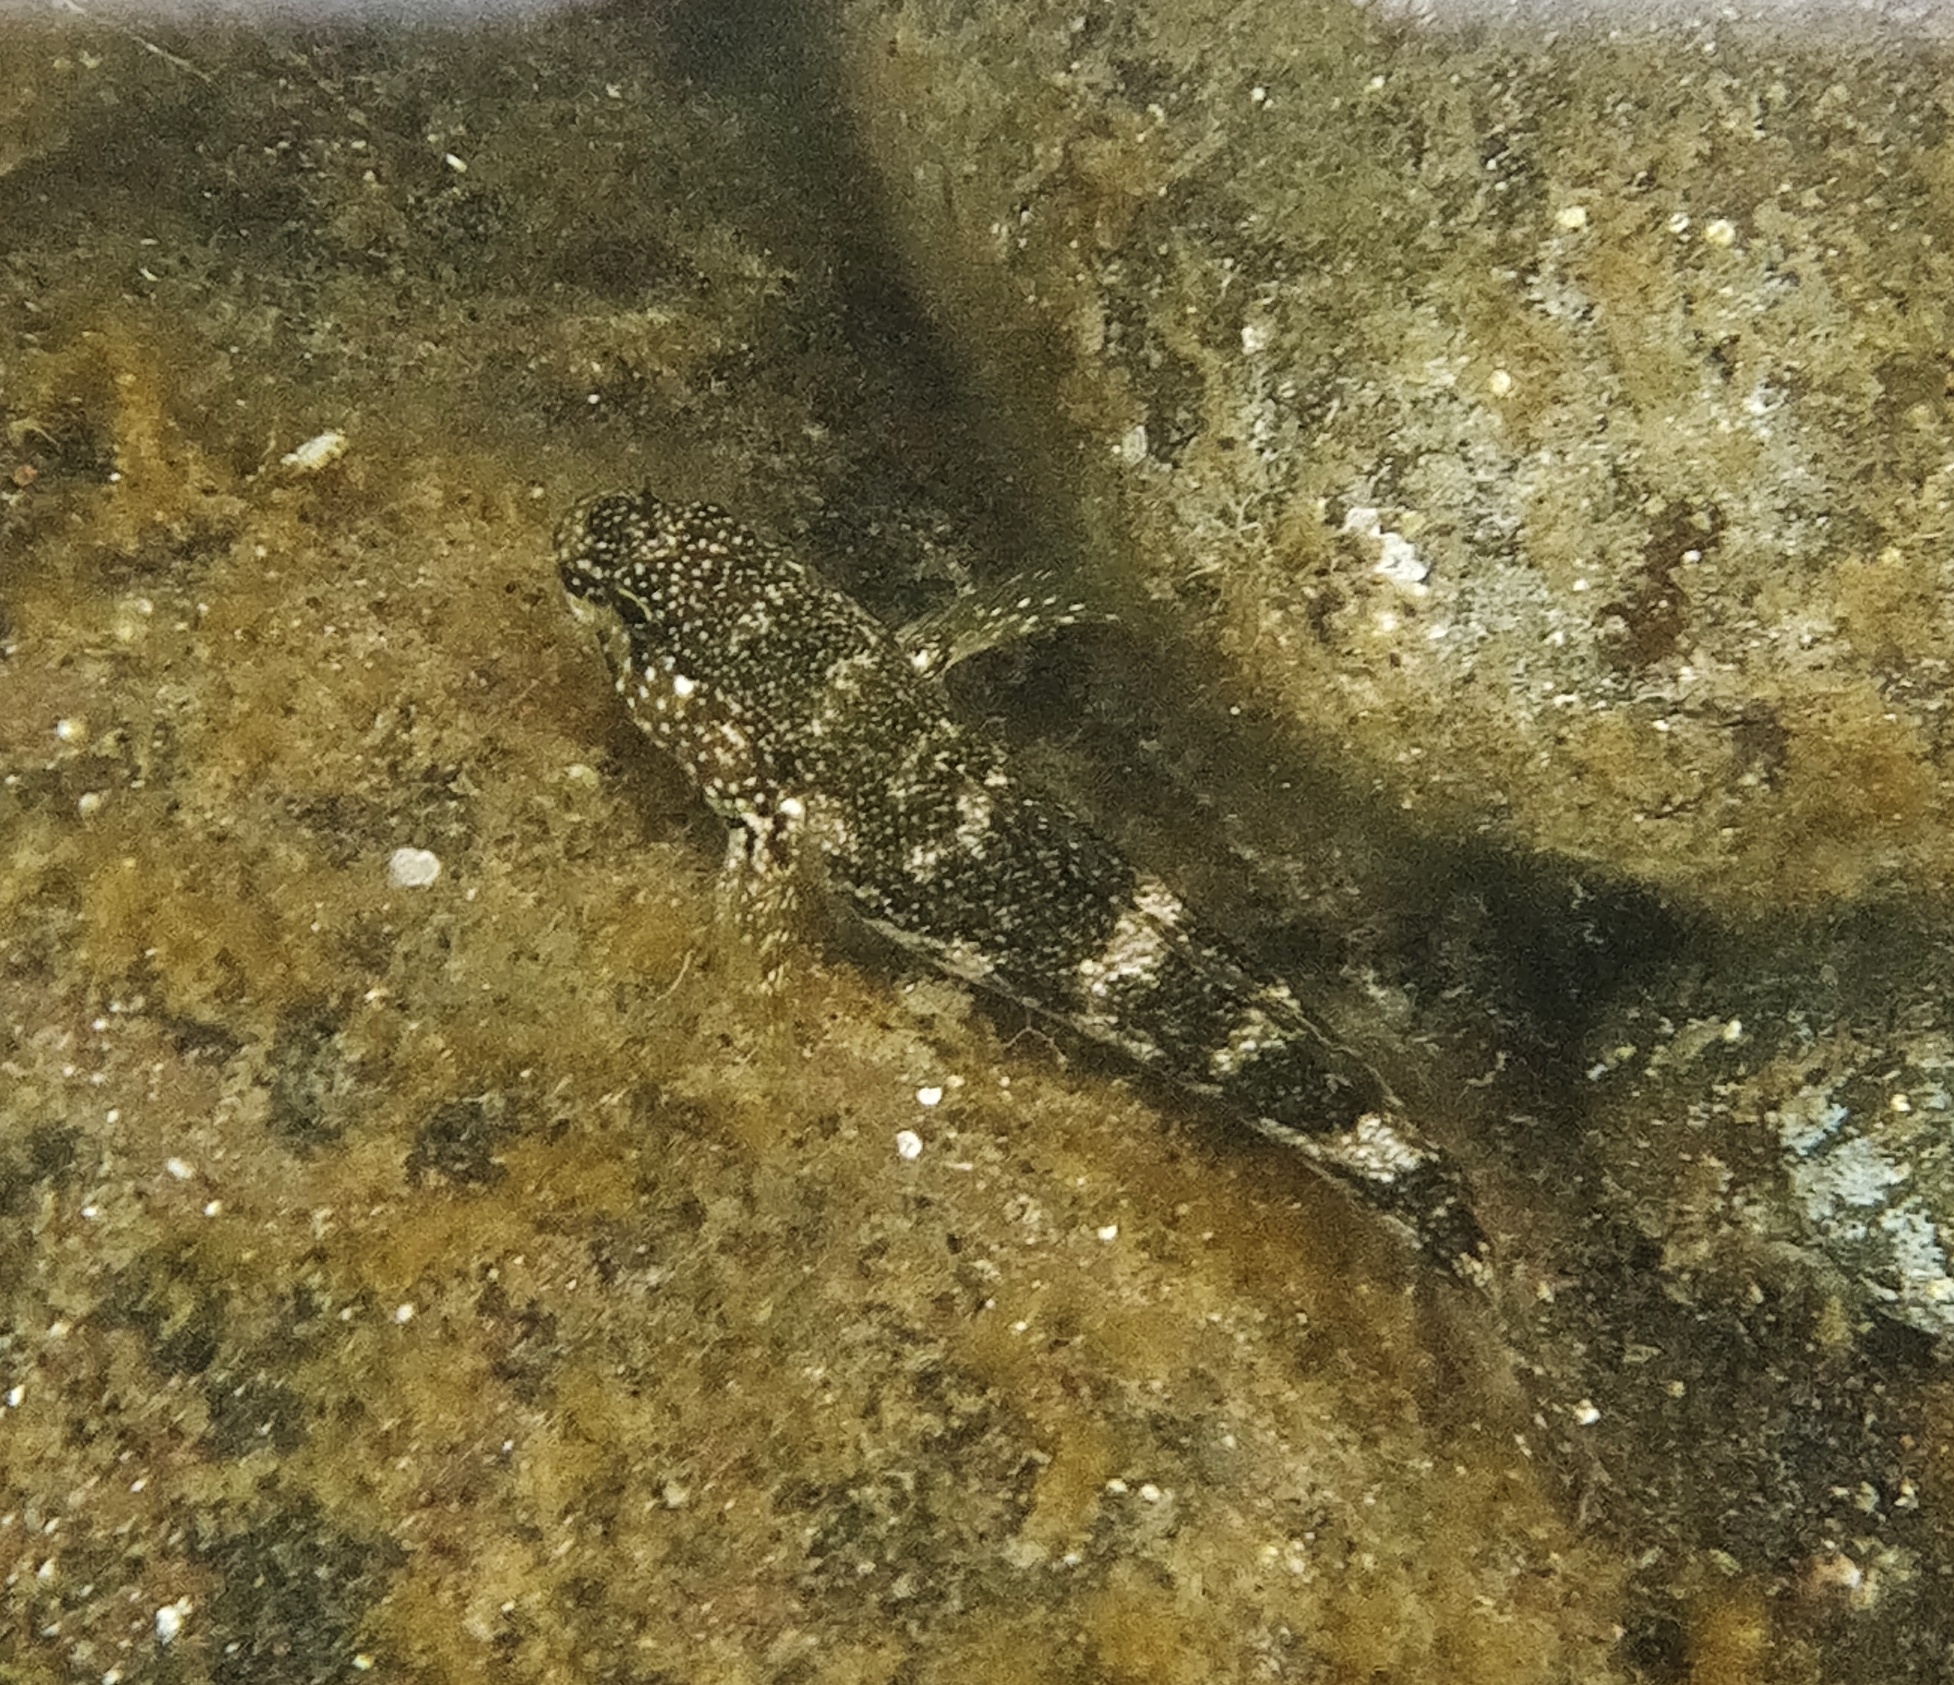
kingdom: Animalia
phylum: Chordata
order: Perciformes
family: Gobiidae
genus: Mauligobius
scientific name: Mauligobius maderensis
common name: Rock goby
